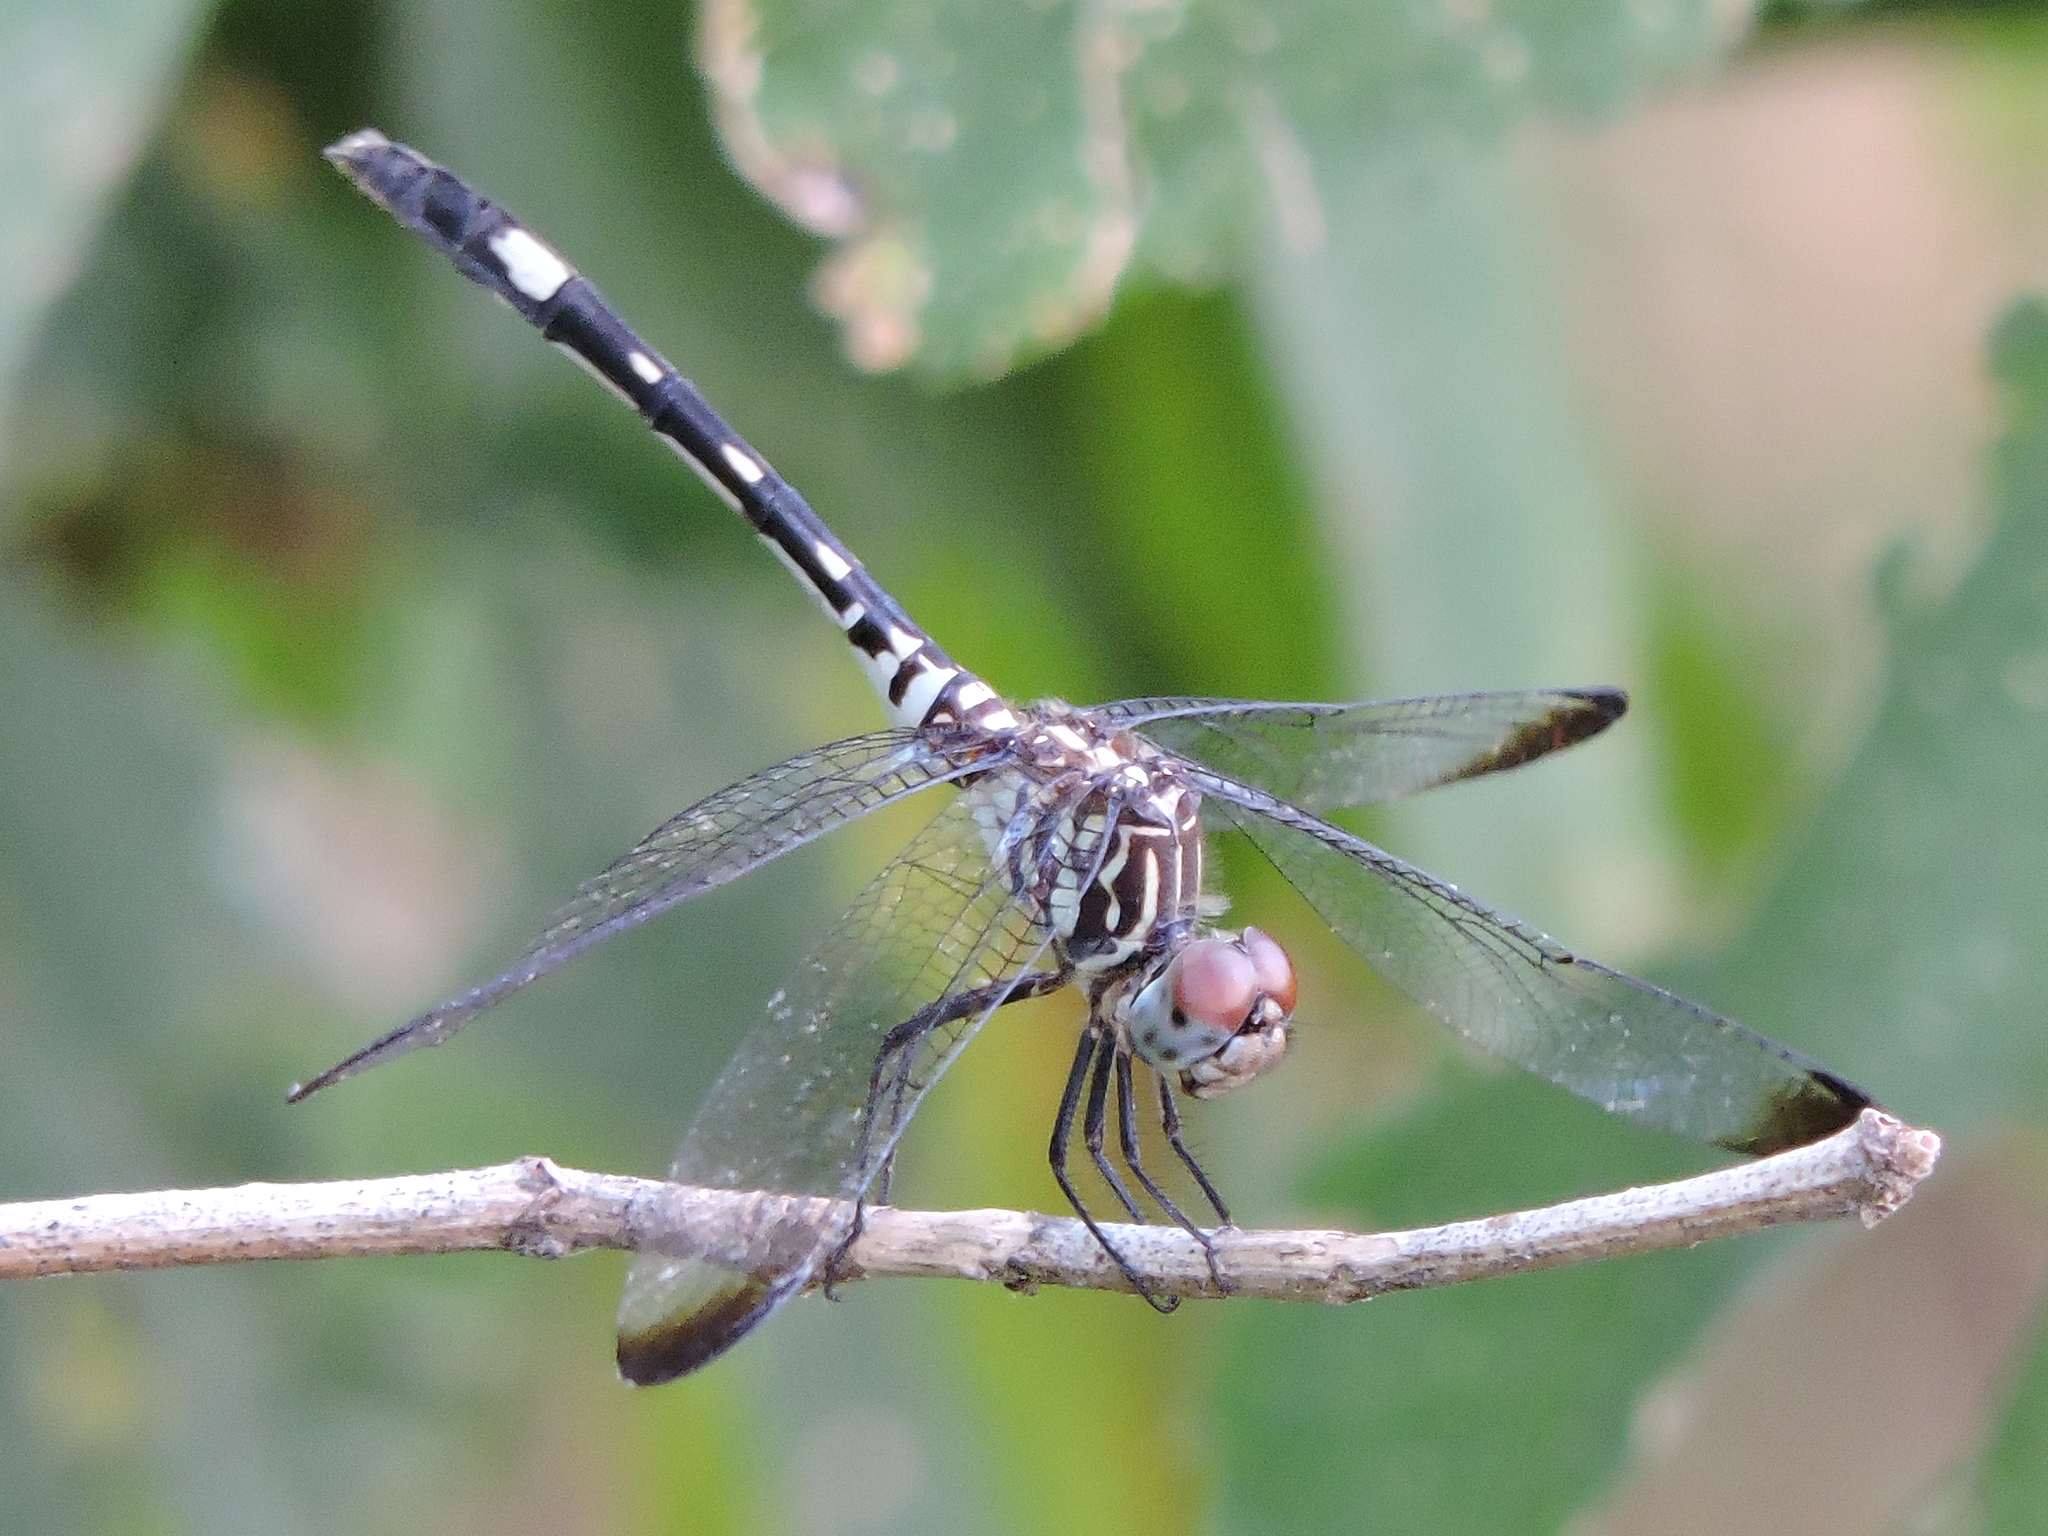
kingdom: Animalia
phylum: Arthropoda
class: Insecta
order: Odonata
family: Libellulidae
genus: Dythemis
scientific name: Dythemis velox
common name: Swift setwing
